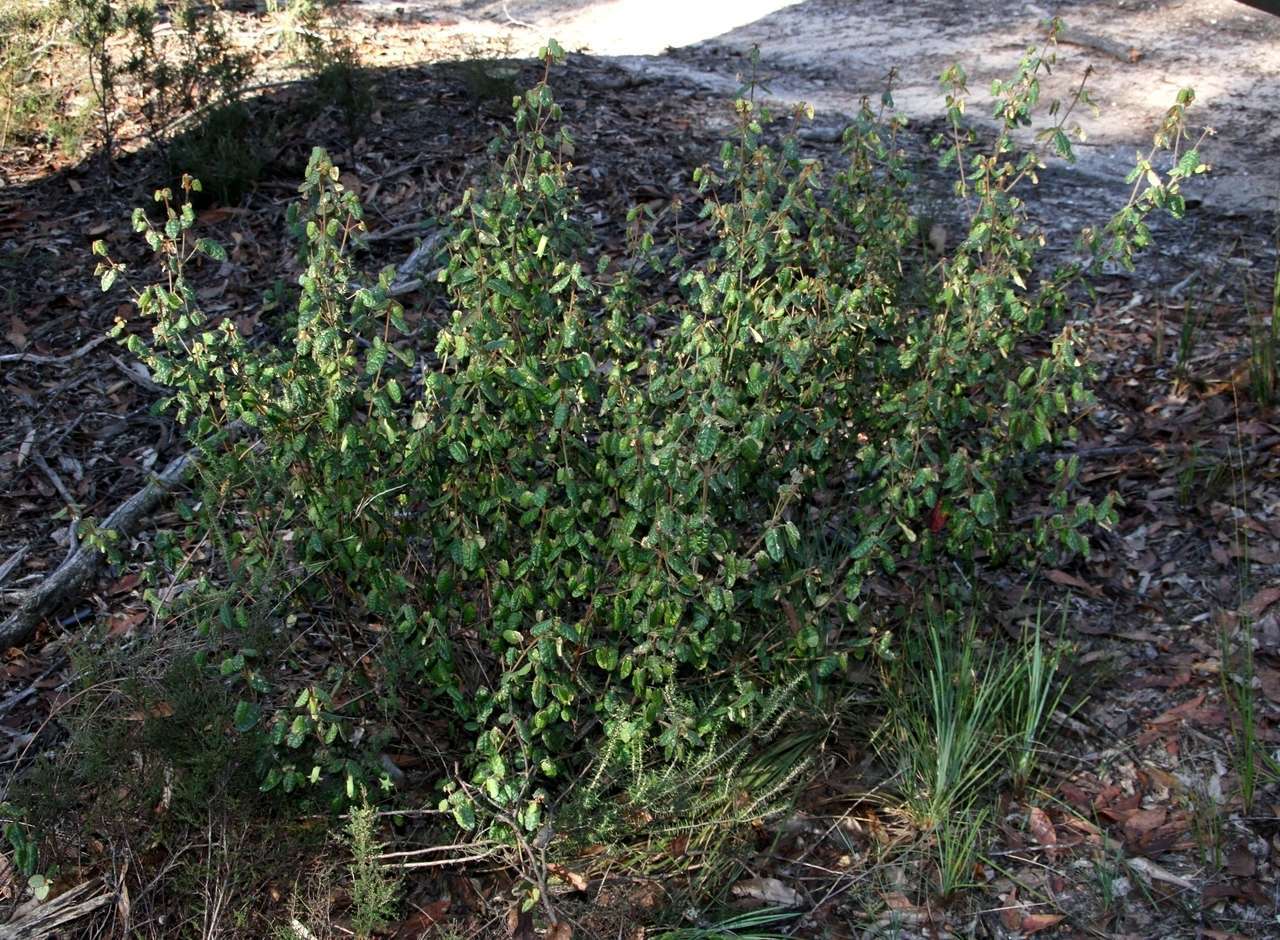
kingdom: Plantae
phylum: Tracheophyta
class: Magnoliopsida
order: Sapindales
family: Rutaceae
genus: Correa
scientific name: Correa reflexa
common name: Common correa
